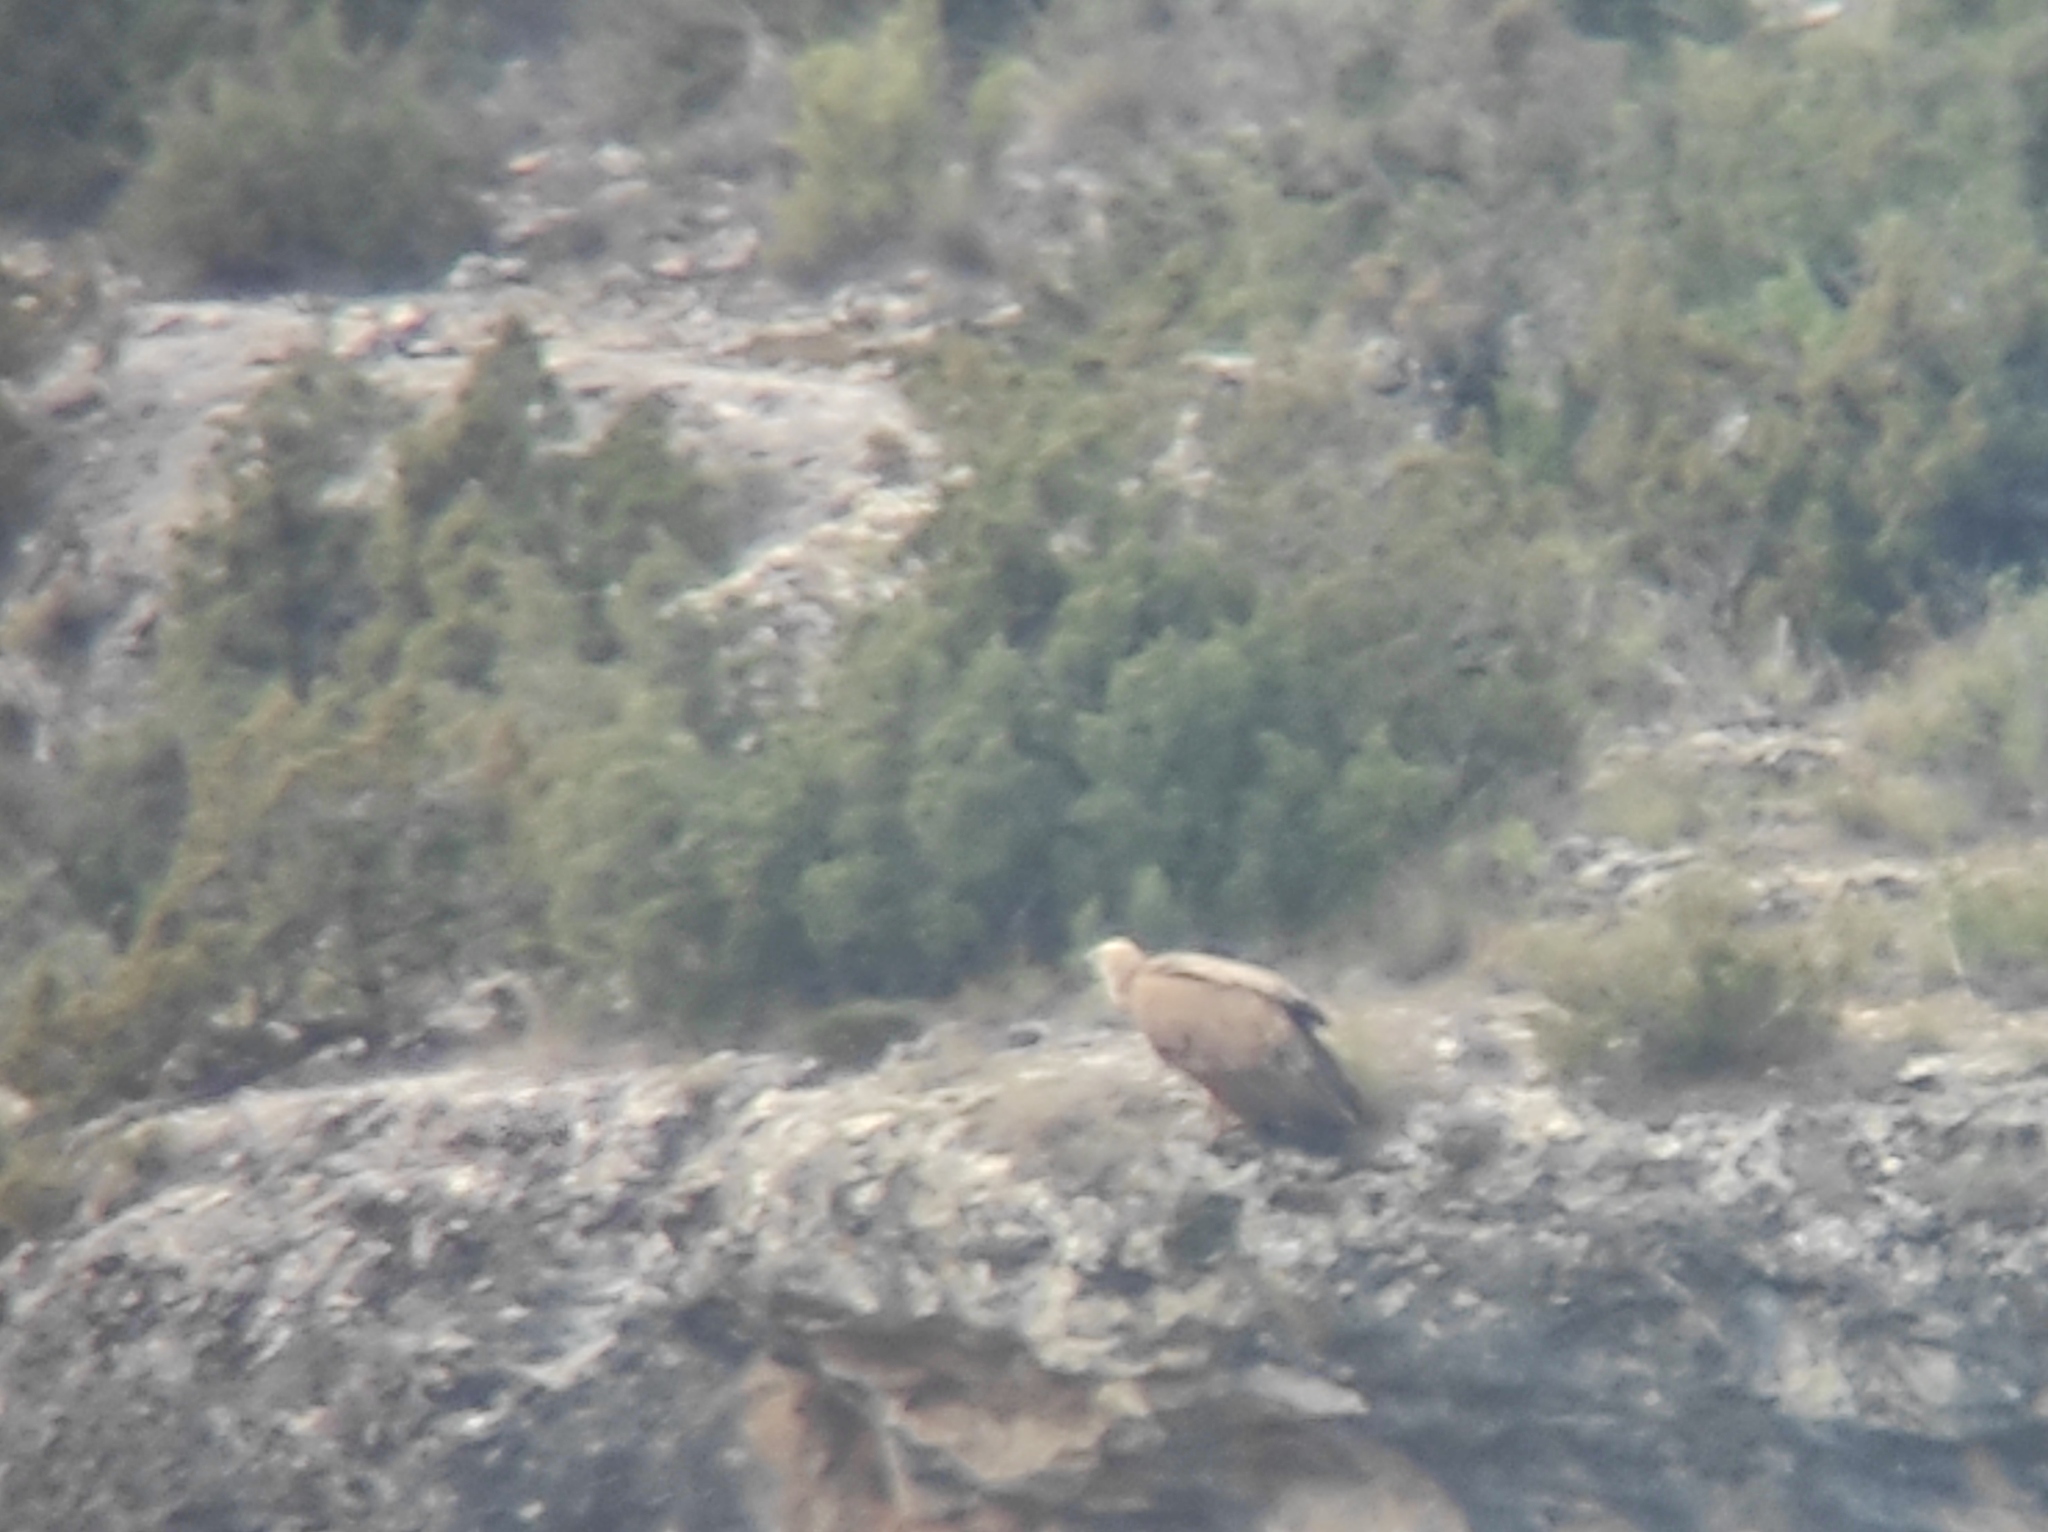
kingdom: Animalia
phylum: Chordata
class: Aves
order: Falconiformes
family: Falconidae
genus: Falco
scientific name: Falco tinnunculus
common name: Common kestrel
